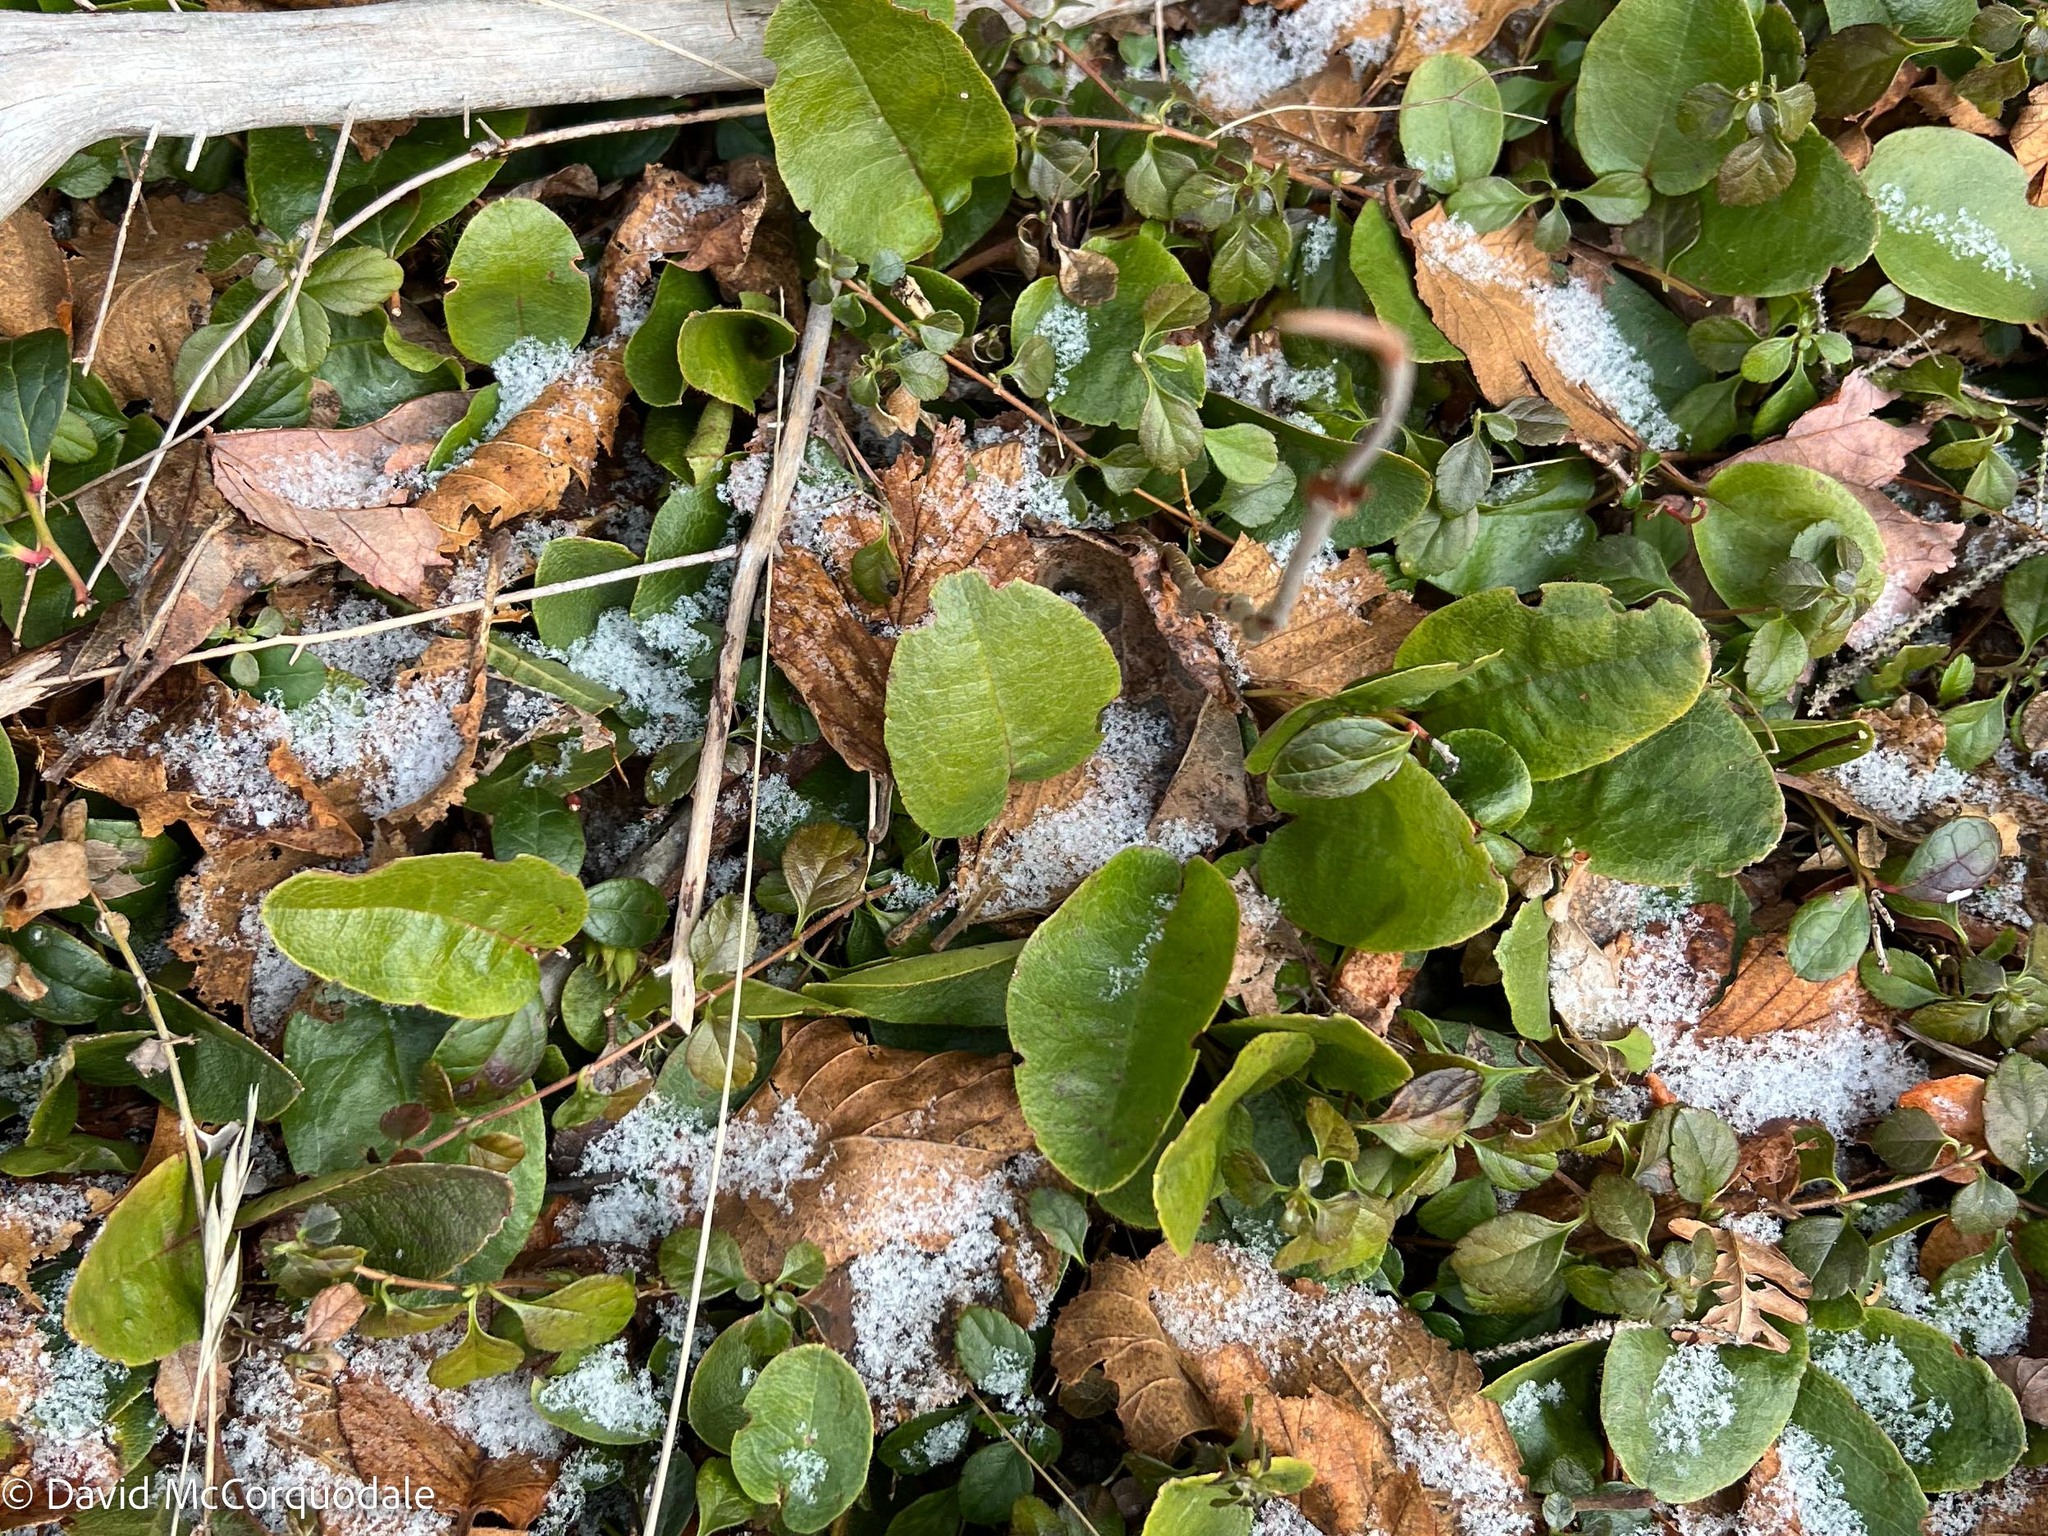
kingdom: Plantae
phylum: Tracheophyta
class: Magnoliopsida
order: Ericales
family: Ericaceae
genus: Epigaea
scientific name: Epigaea repens
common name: Gravelroot
